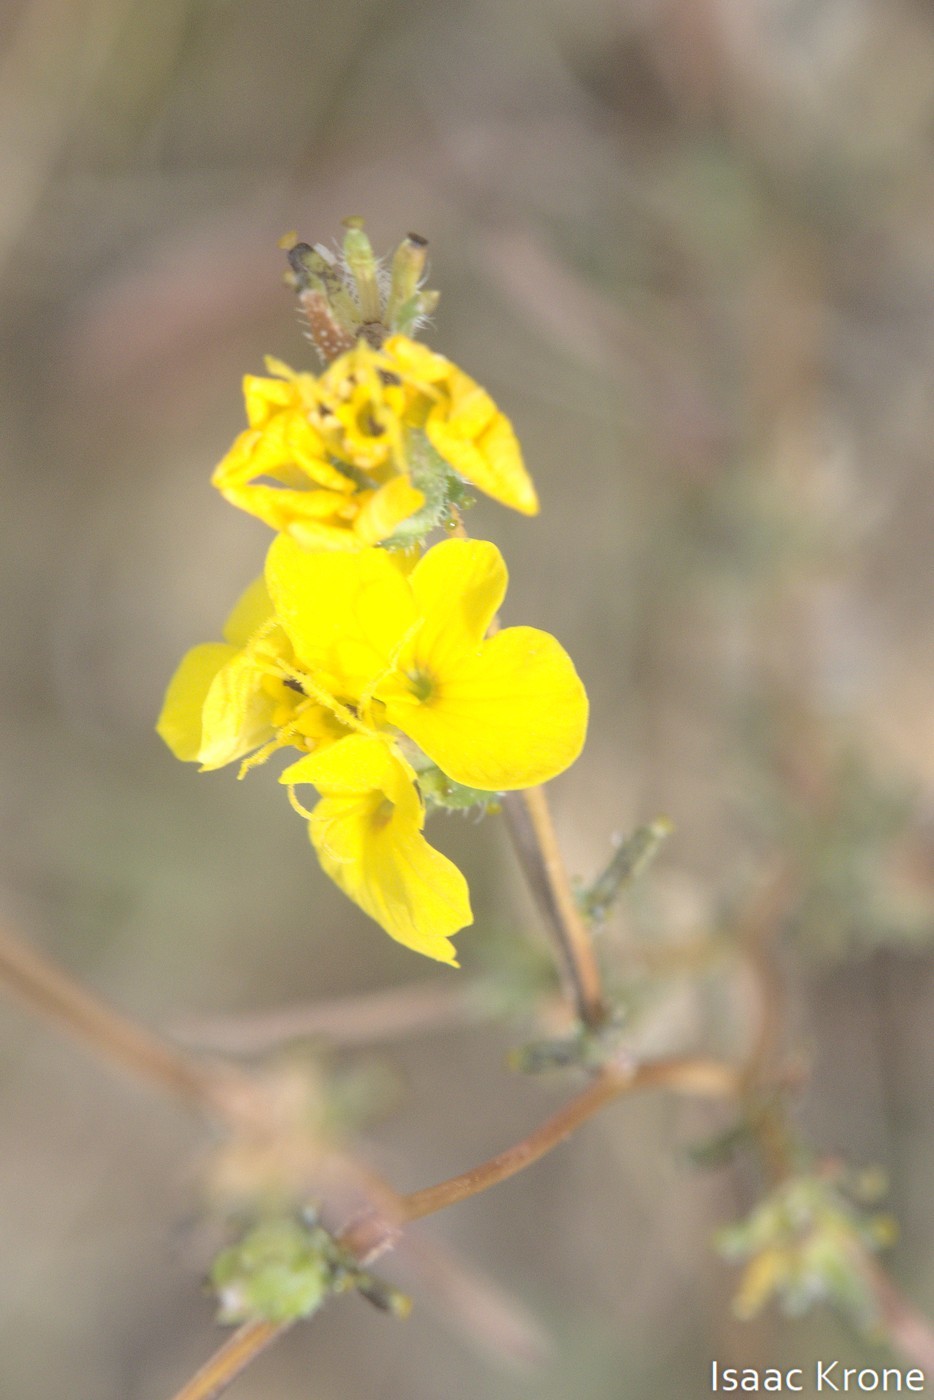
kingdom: Plantae
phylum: Tracheophyta
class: Magnoliopsida
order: Asterales
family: Asteraceae
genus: Calycadenia
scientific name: Calycadenia truncata
